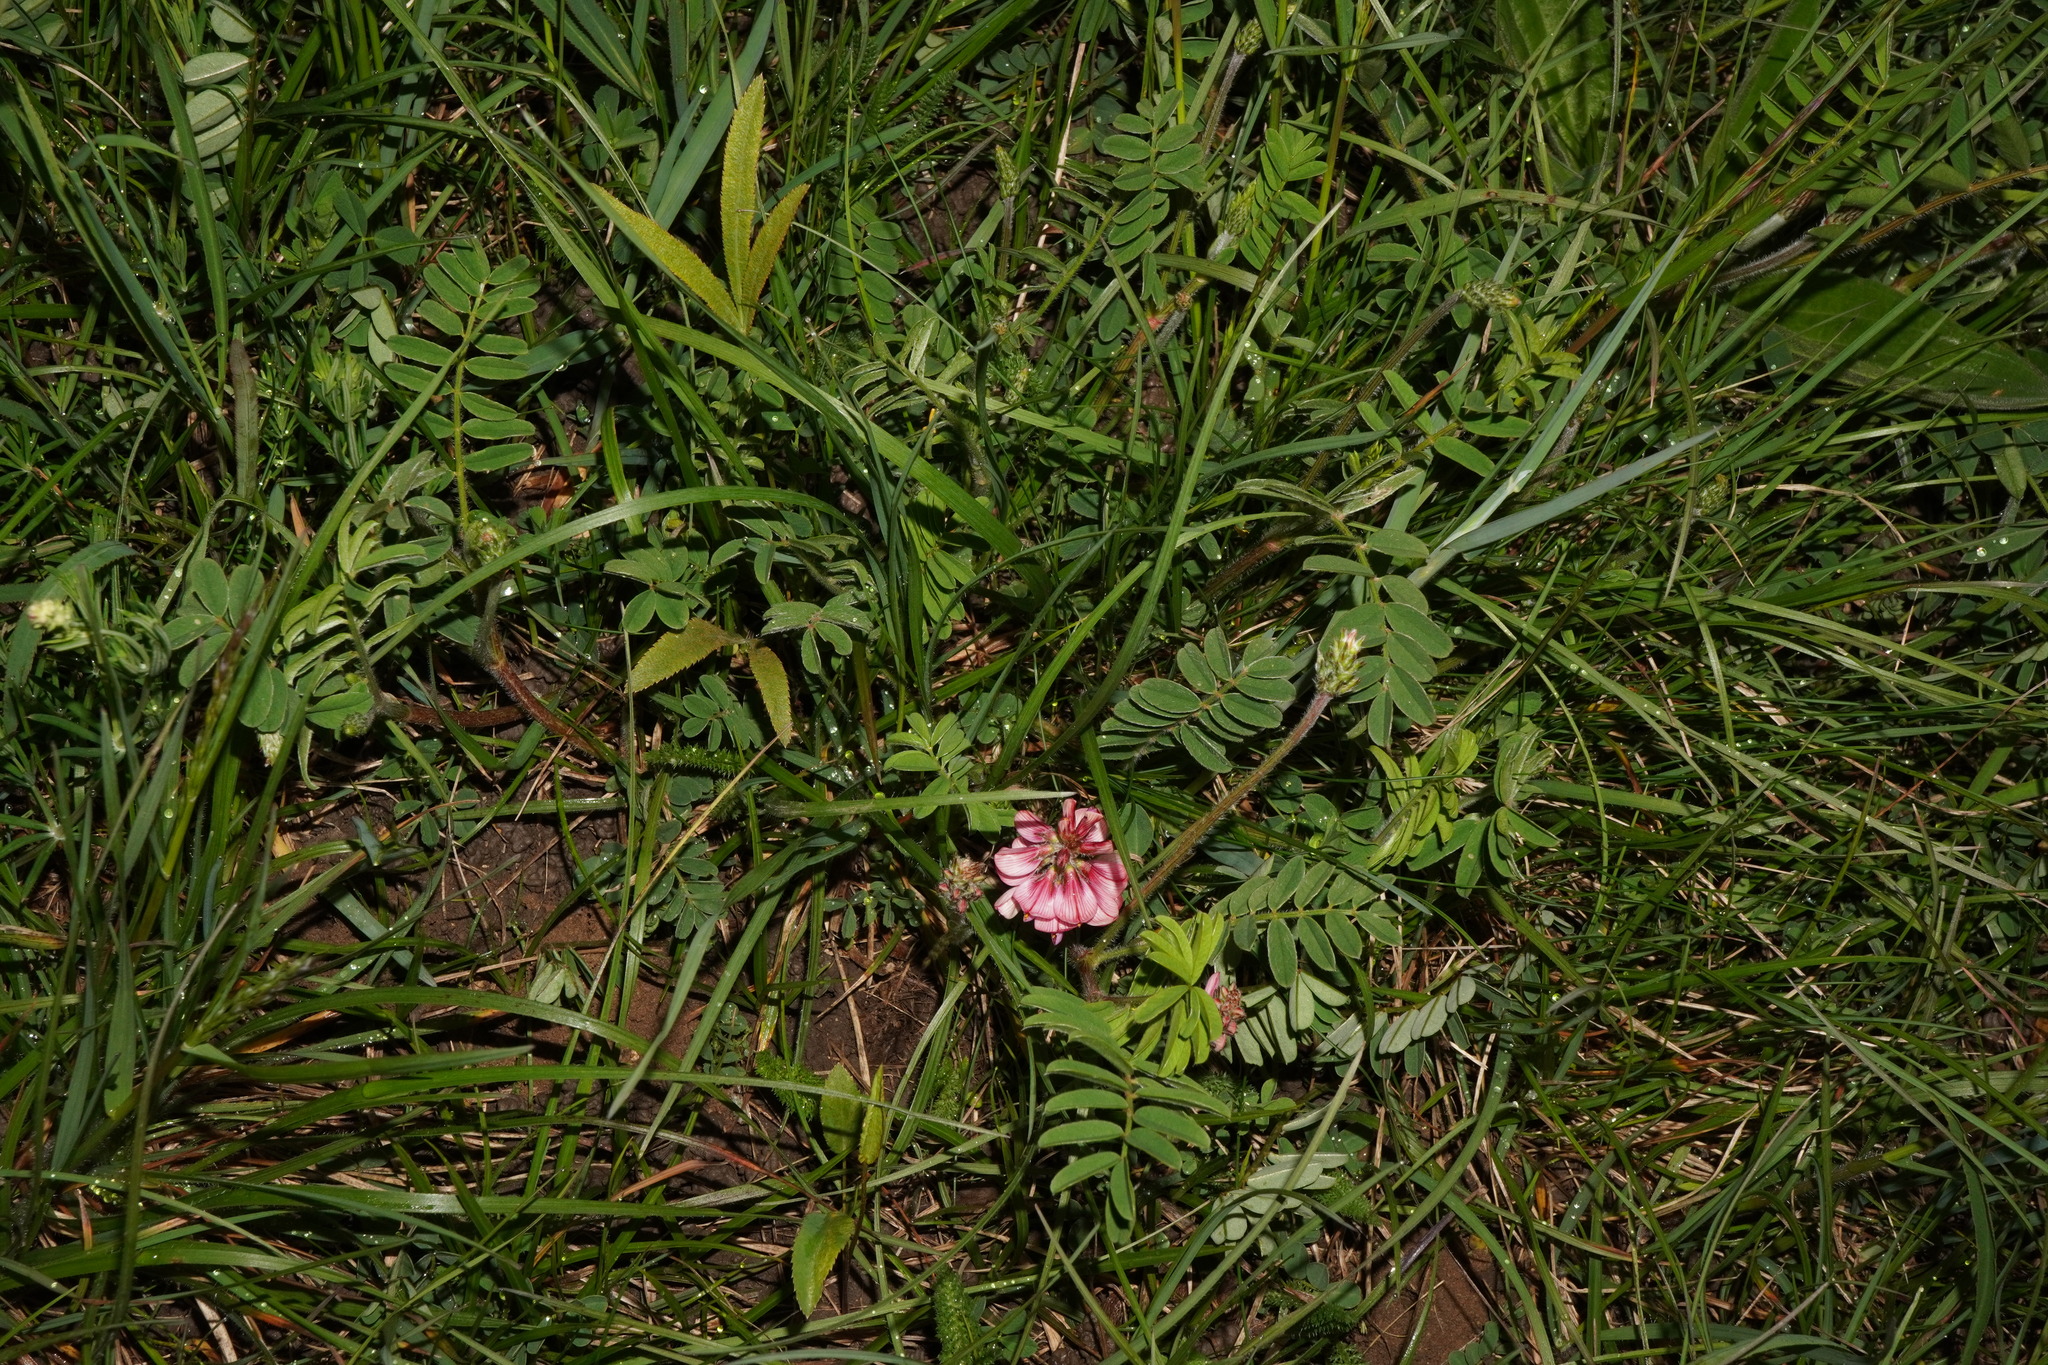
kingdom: Plantae
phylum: Tracheophyta
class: Magnoliopsida
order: Fabales
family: Fabaceae
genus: Onobrychis
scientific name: Onobrychis viciifolia
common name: Sainfoin
